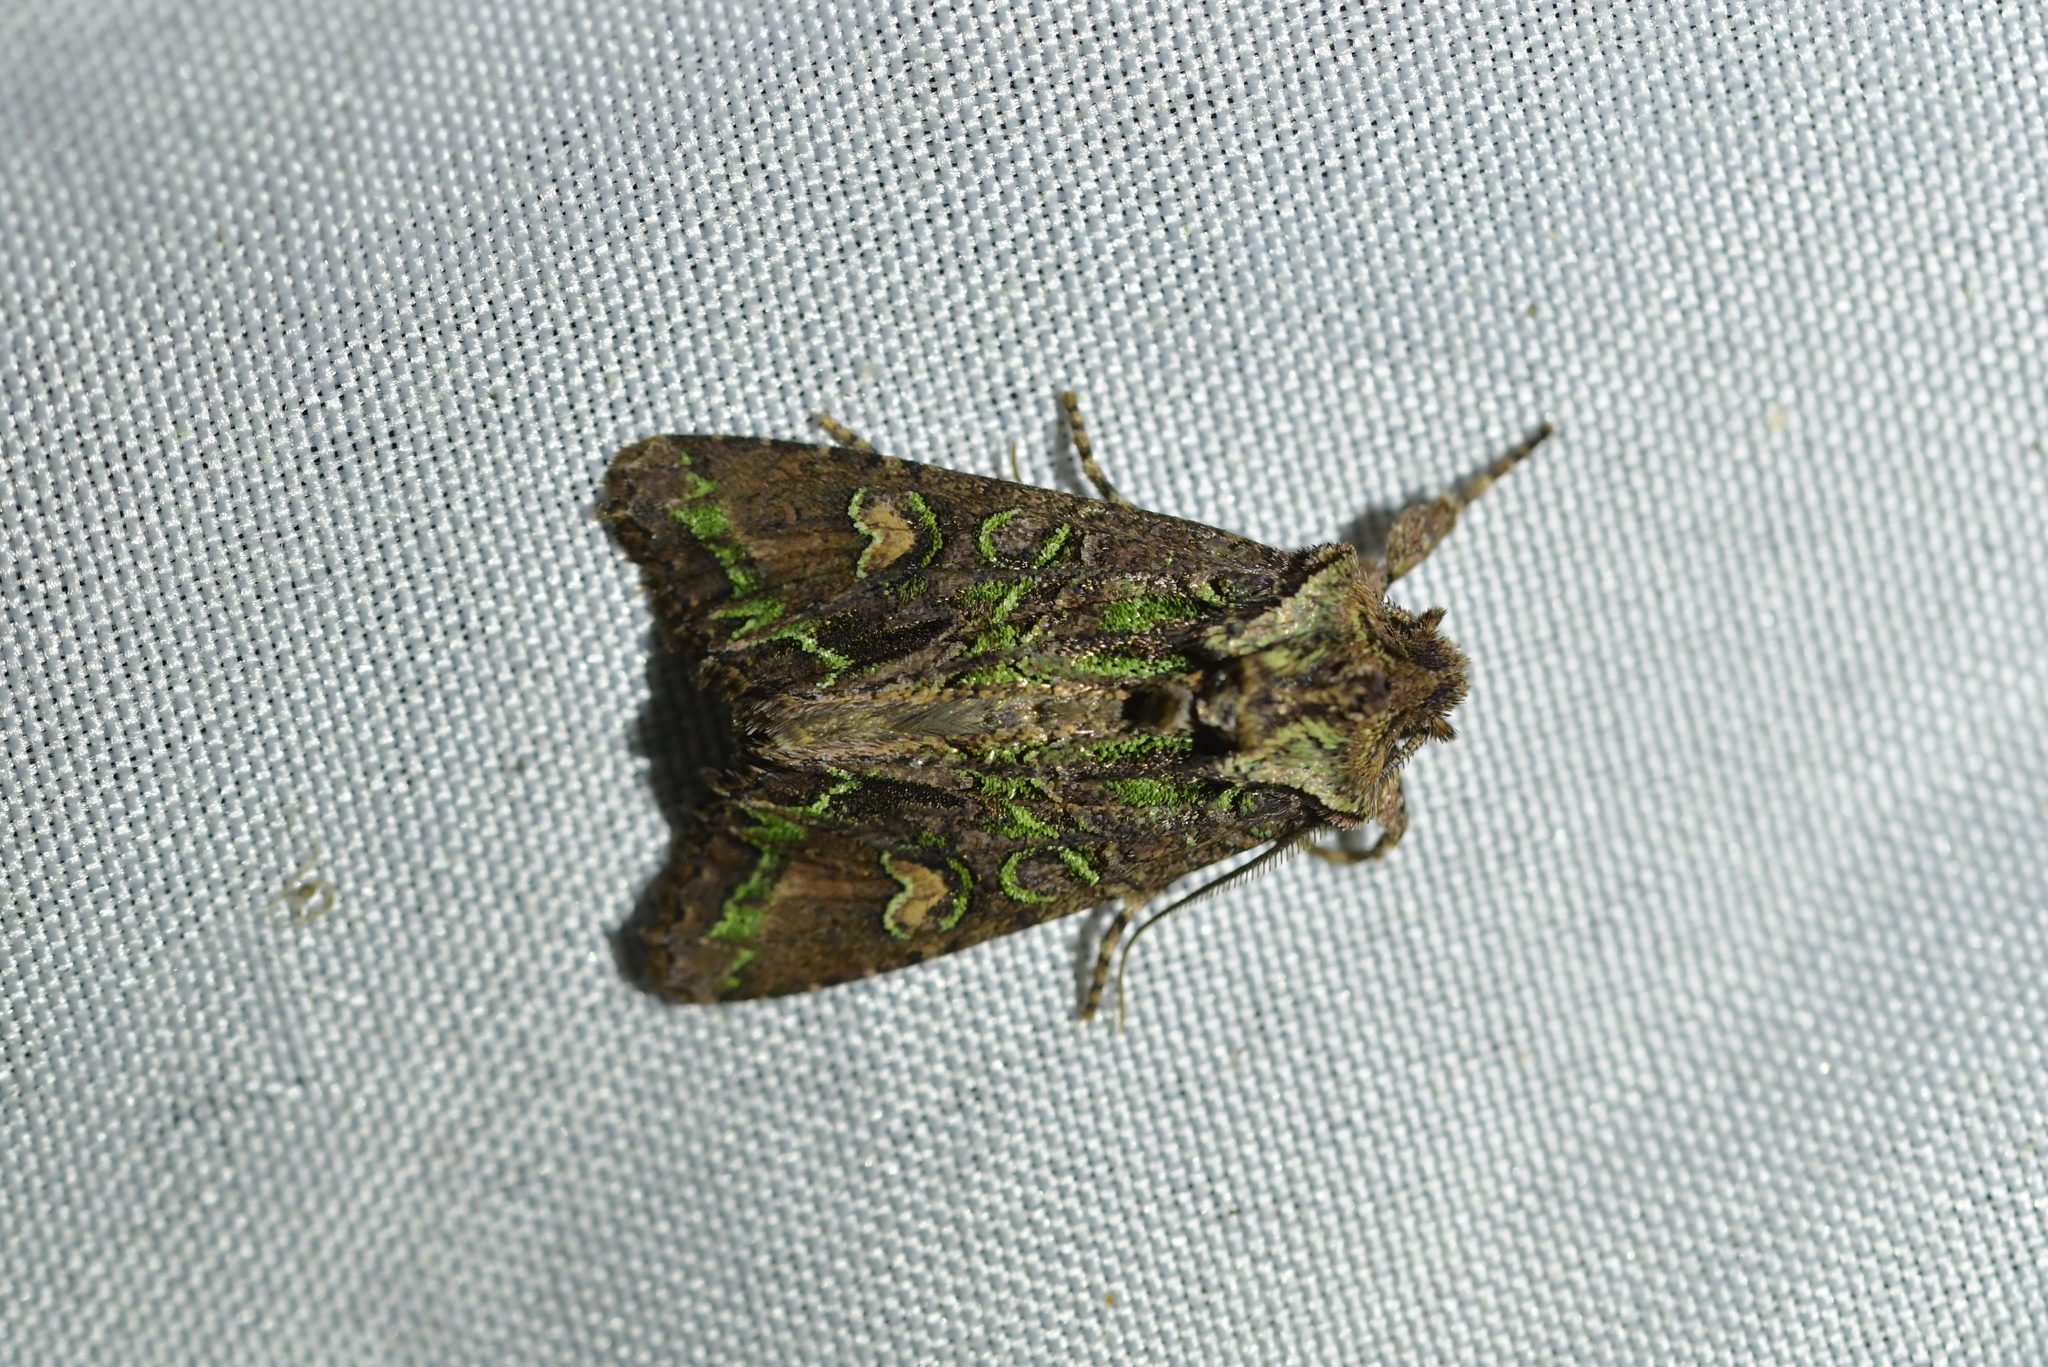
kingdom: Animalia
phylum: Arthropoda
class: Insecta
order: Lepidoptera
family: Noctuidae
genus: Ichneutica
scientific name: Ichneutica insignis
